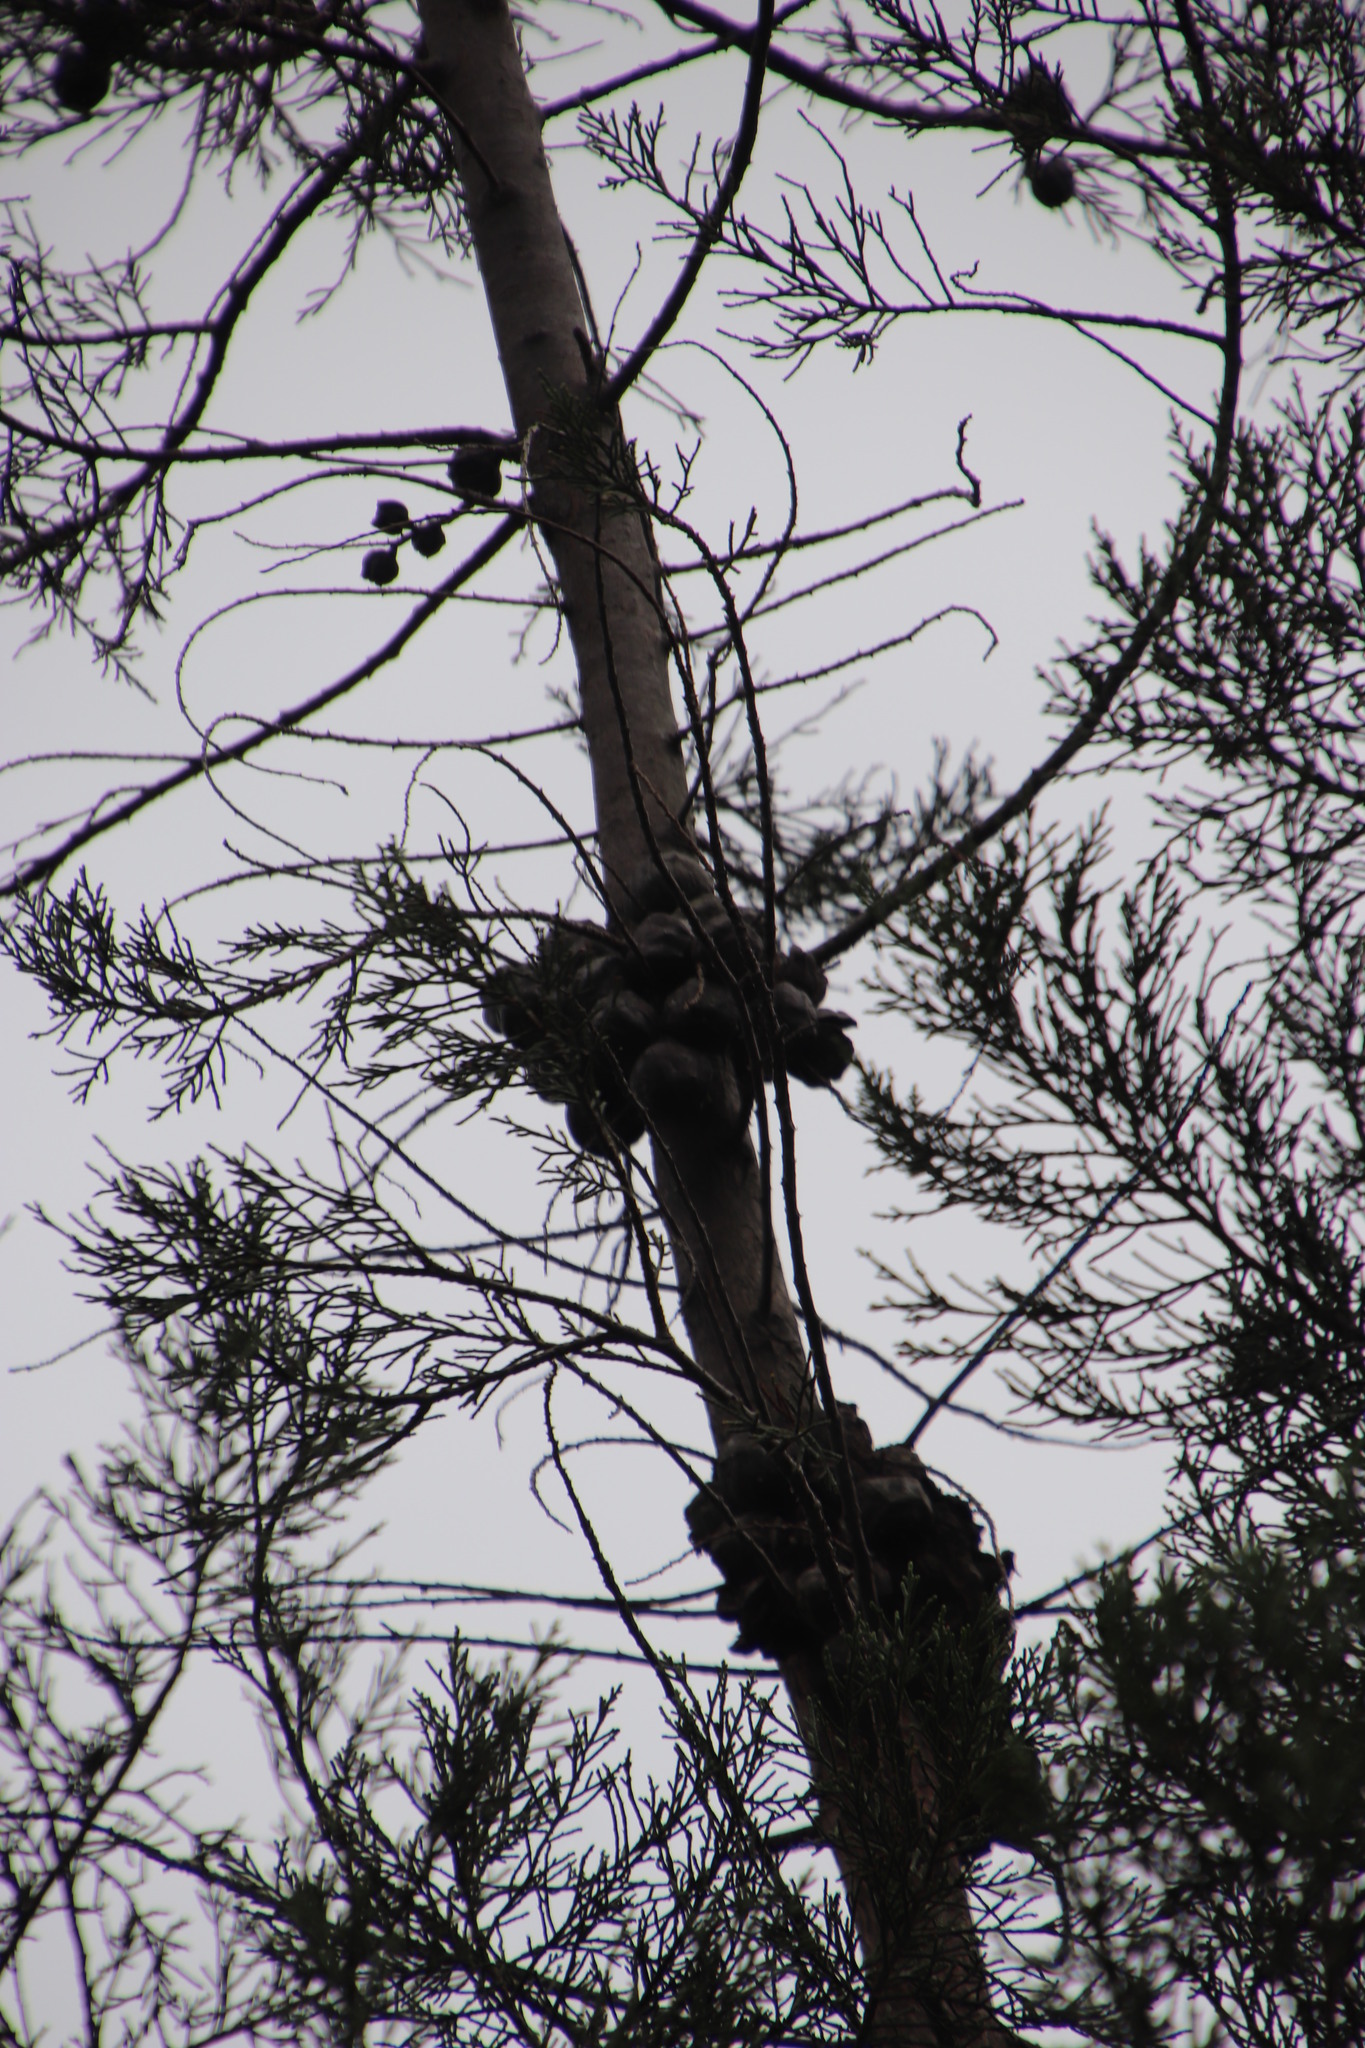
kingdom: Plantae
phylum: Tracheophyta
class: Pinopsida
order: Pinales
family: Cupressaceae
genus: Widdringtonia
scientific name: Widdringtonia nodiflora
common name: Cape cypress
